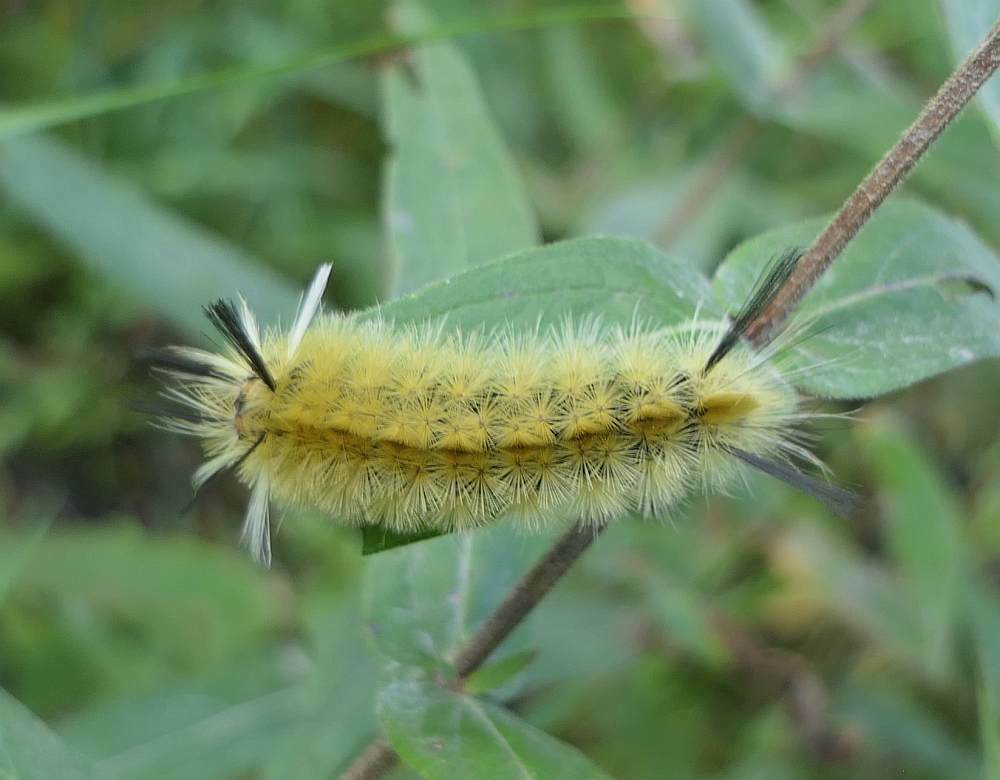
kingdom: Animalia
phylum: Arthropoda
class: Insecta
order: Lepidoptera
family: Erebidae
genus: Halysidota
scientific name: Halysidota tessellaris
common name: Banded tussock moth
